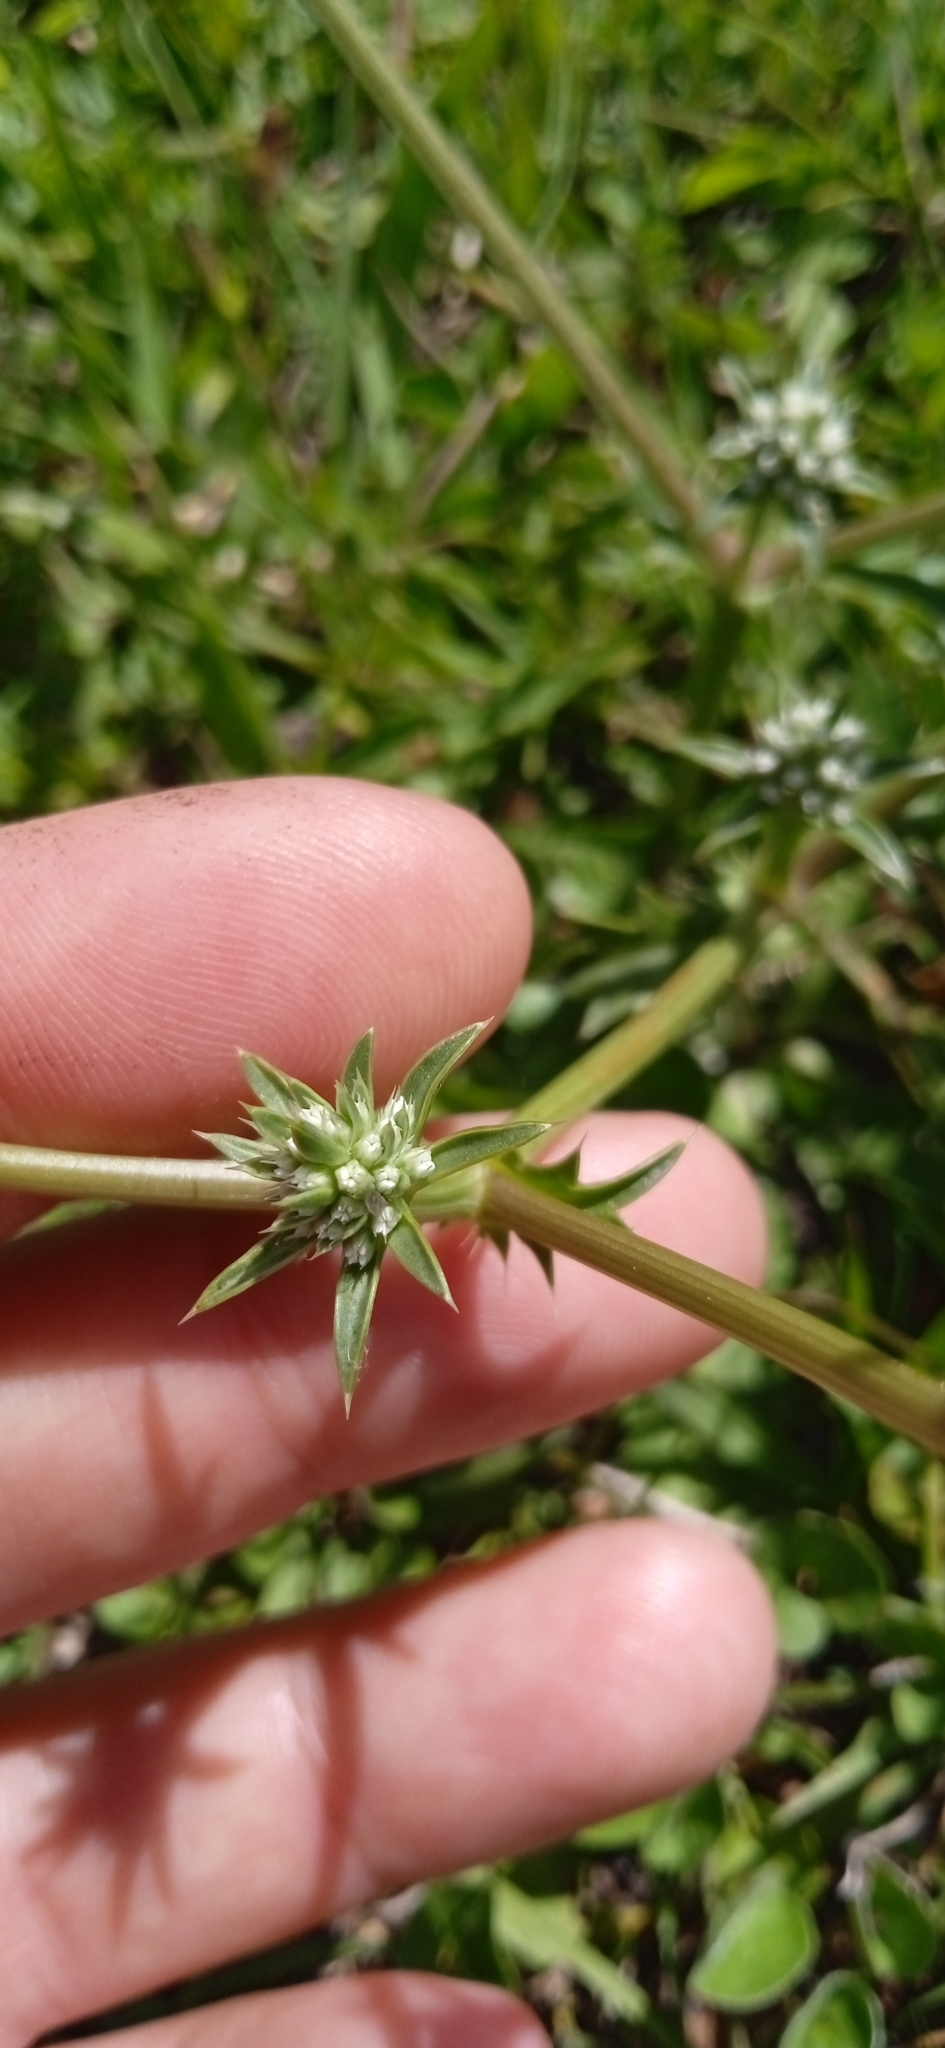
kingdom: Plantae
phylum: Tracheophyta
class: Magnoliopsida
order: Apiales
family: Apiaceae
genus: Eryngium
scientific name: Eryngium nudicaule
